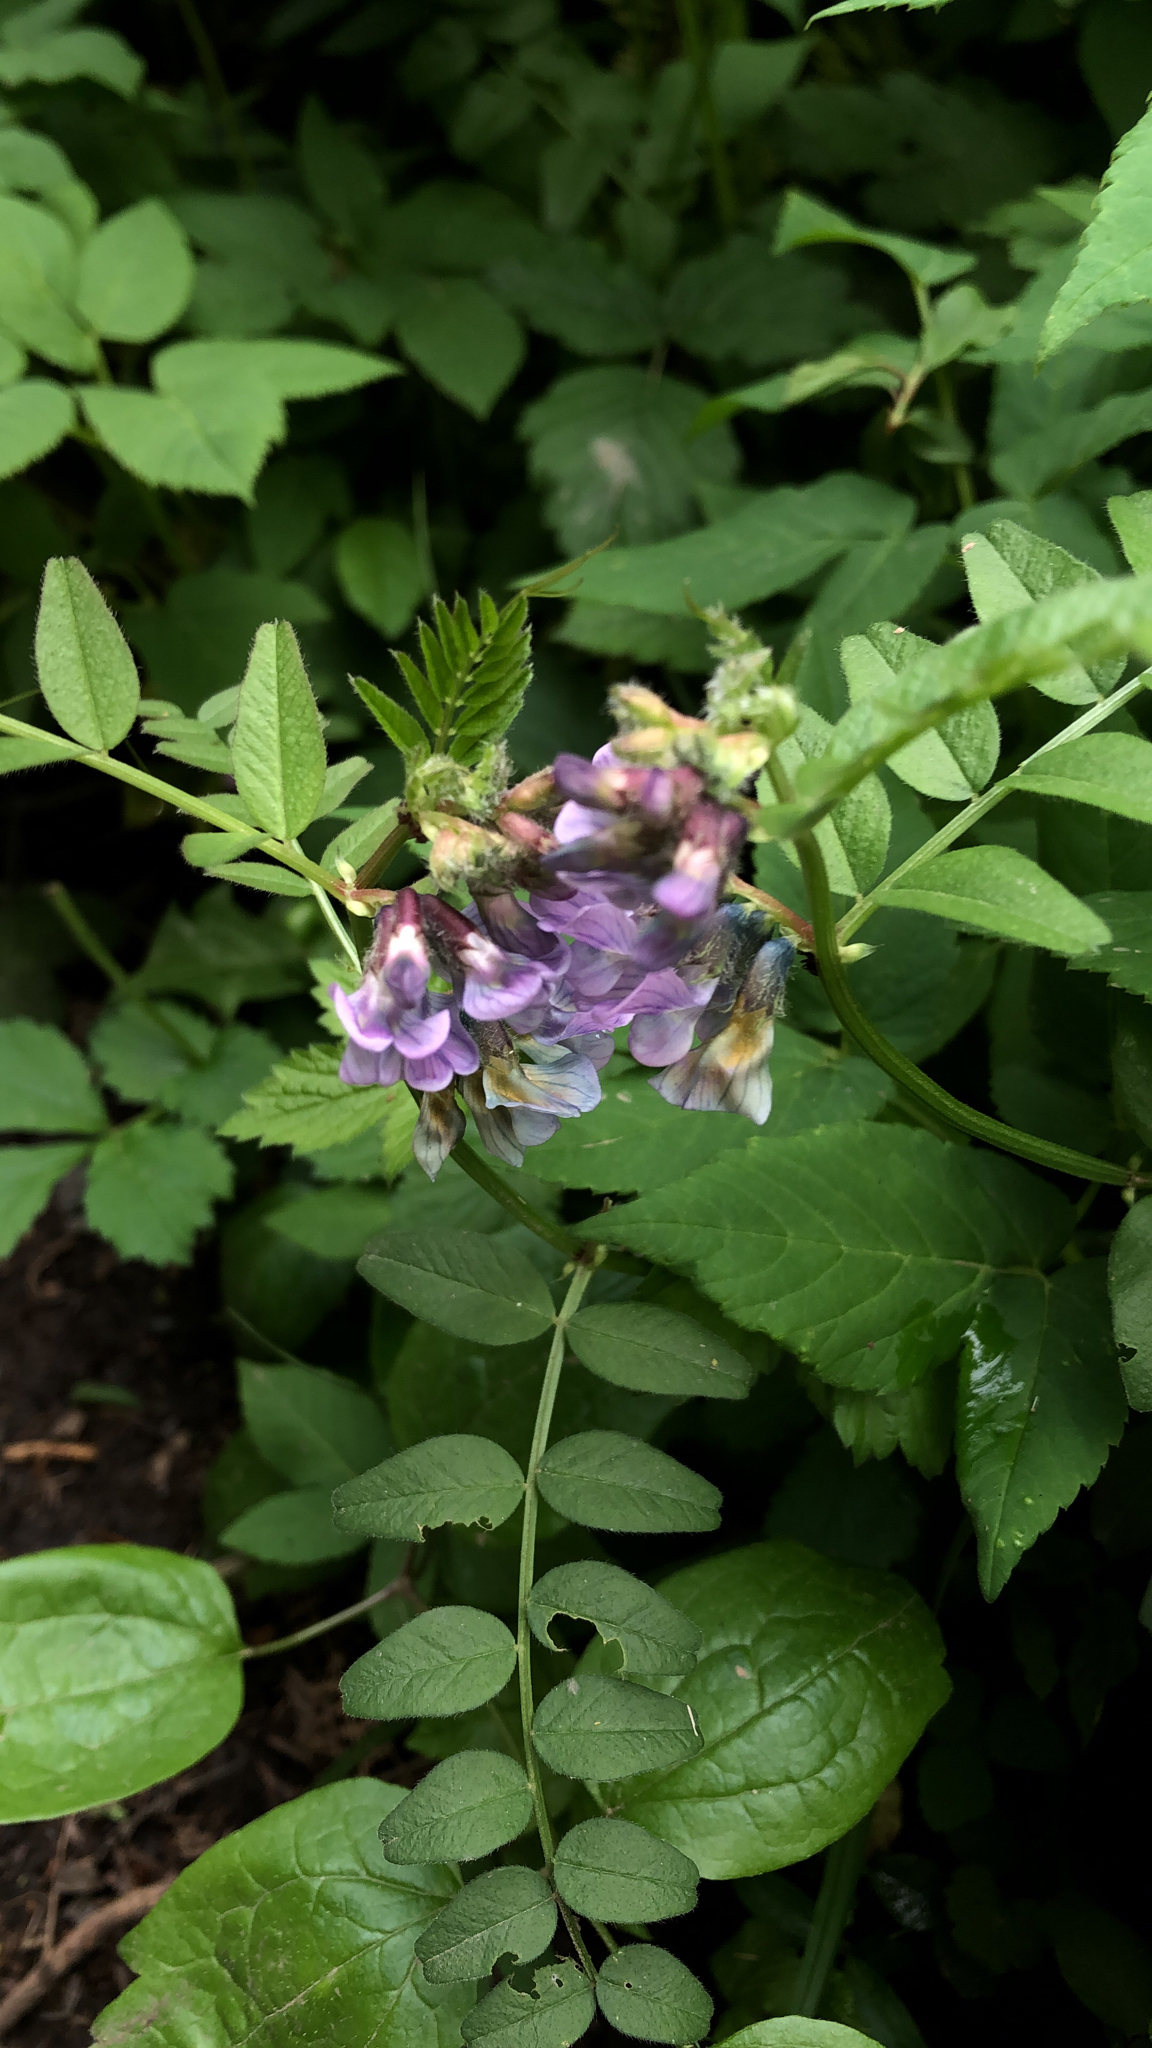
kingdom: Plantae
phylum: Tracheophyta
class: Magnoliopsida
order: Fabales
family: Fabaceae
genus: Vicia
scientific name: Vicia sepium
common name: Bush vetch
